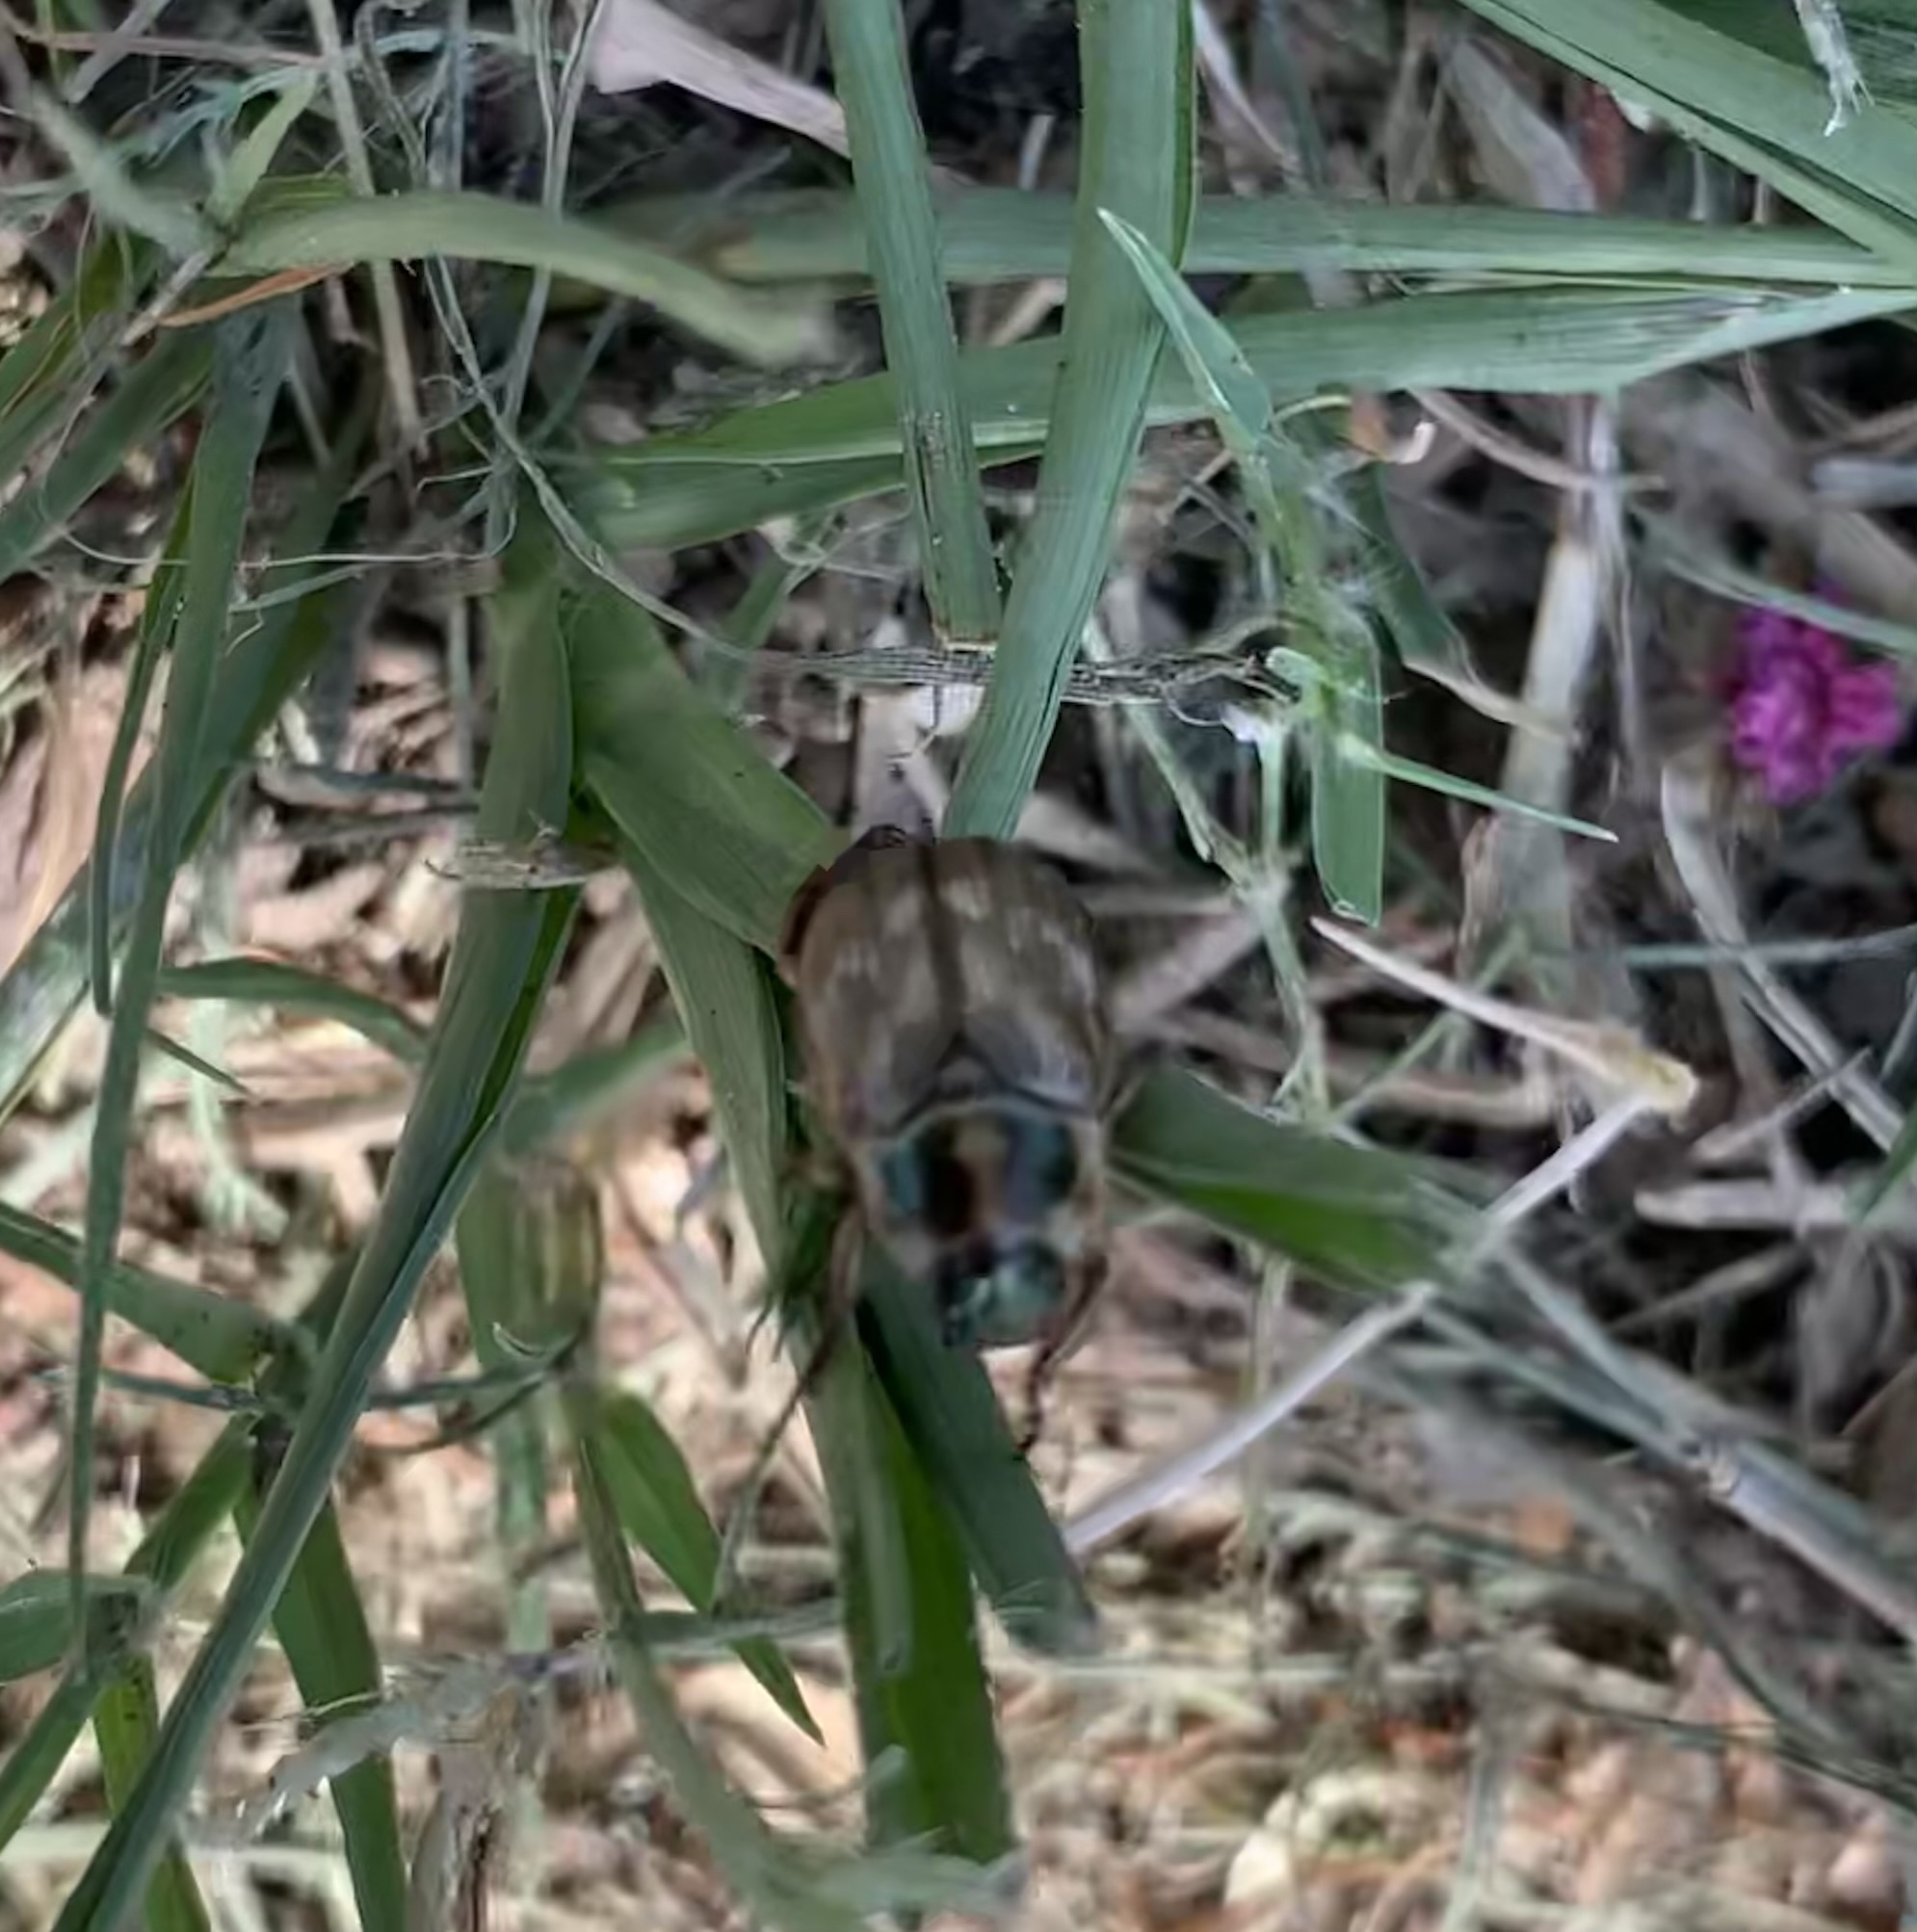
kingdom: Animalia
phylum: Arthropoda
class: Insecta
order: Coleoptera
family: Scarabaeidae
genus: Exomala
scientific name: Exomala orientalis
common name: Oriental beetle
